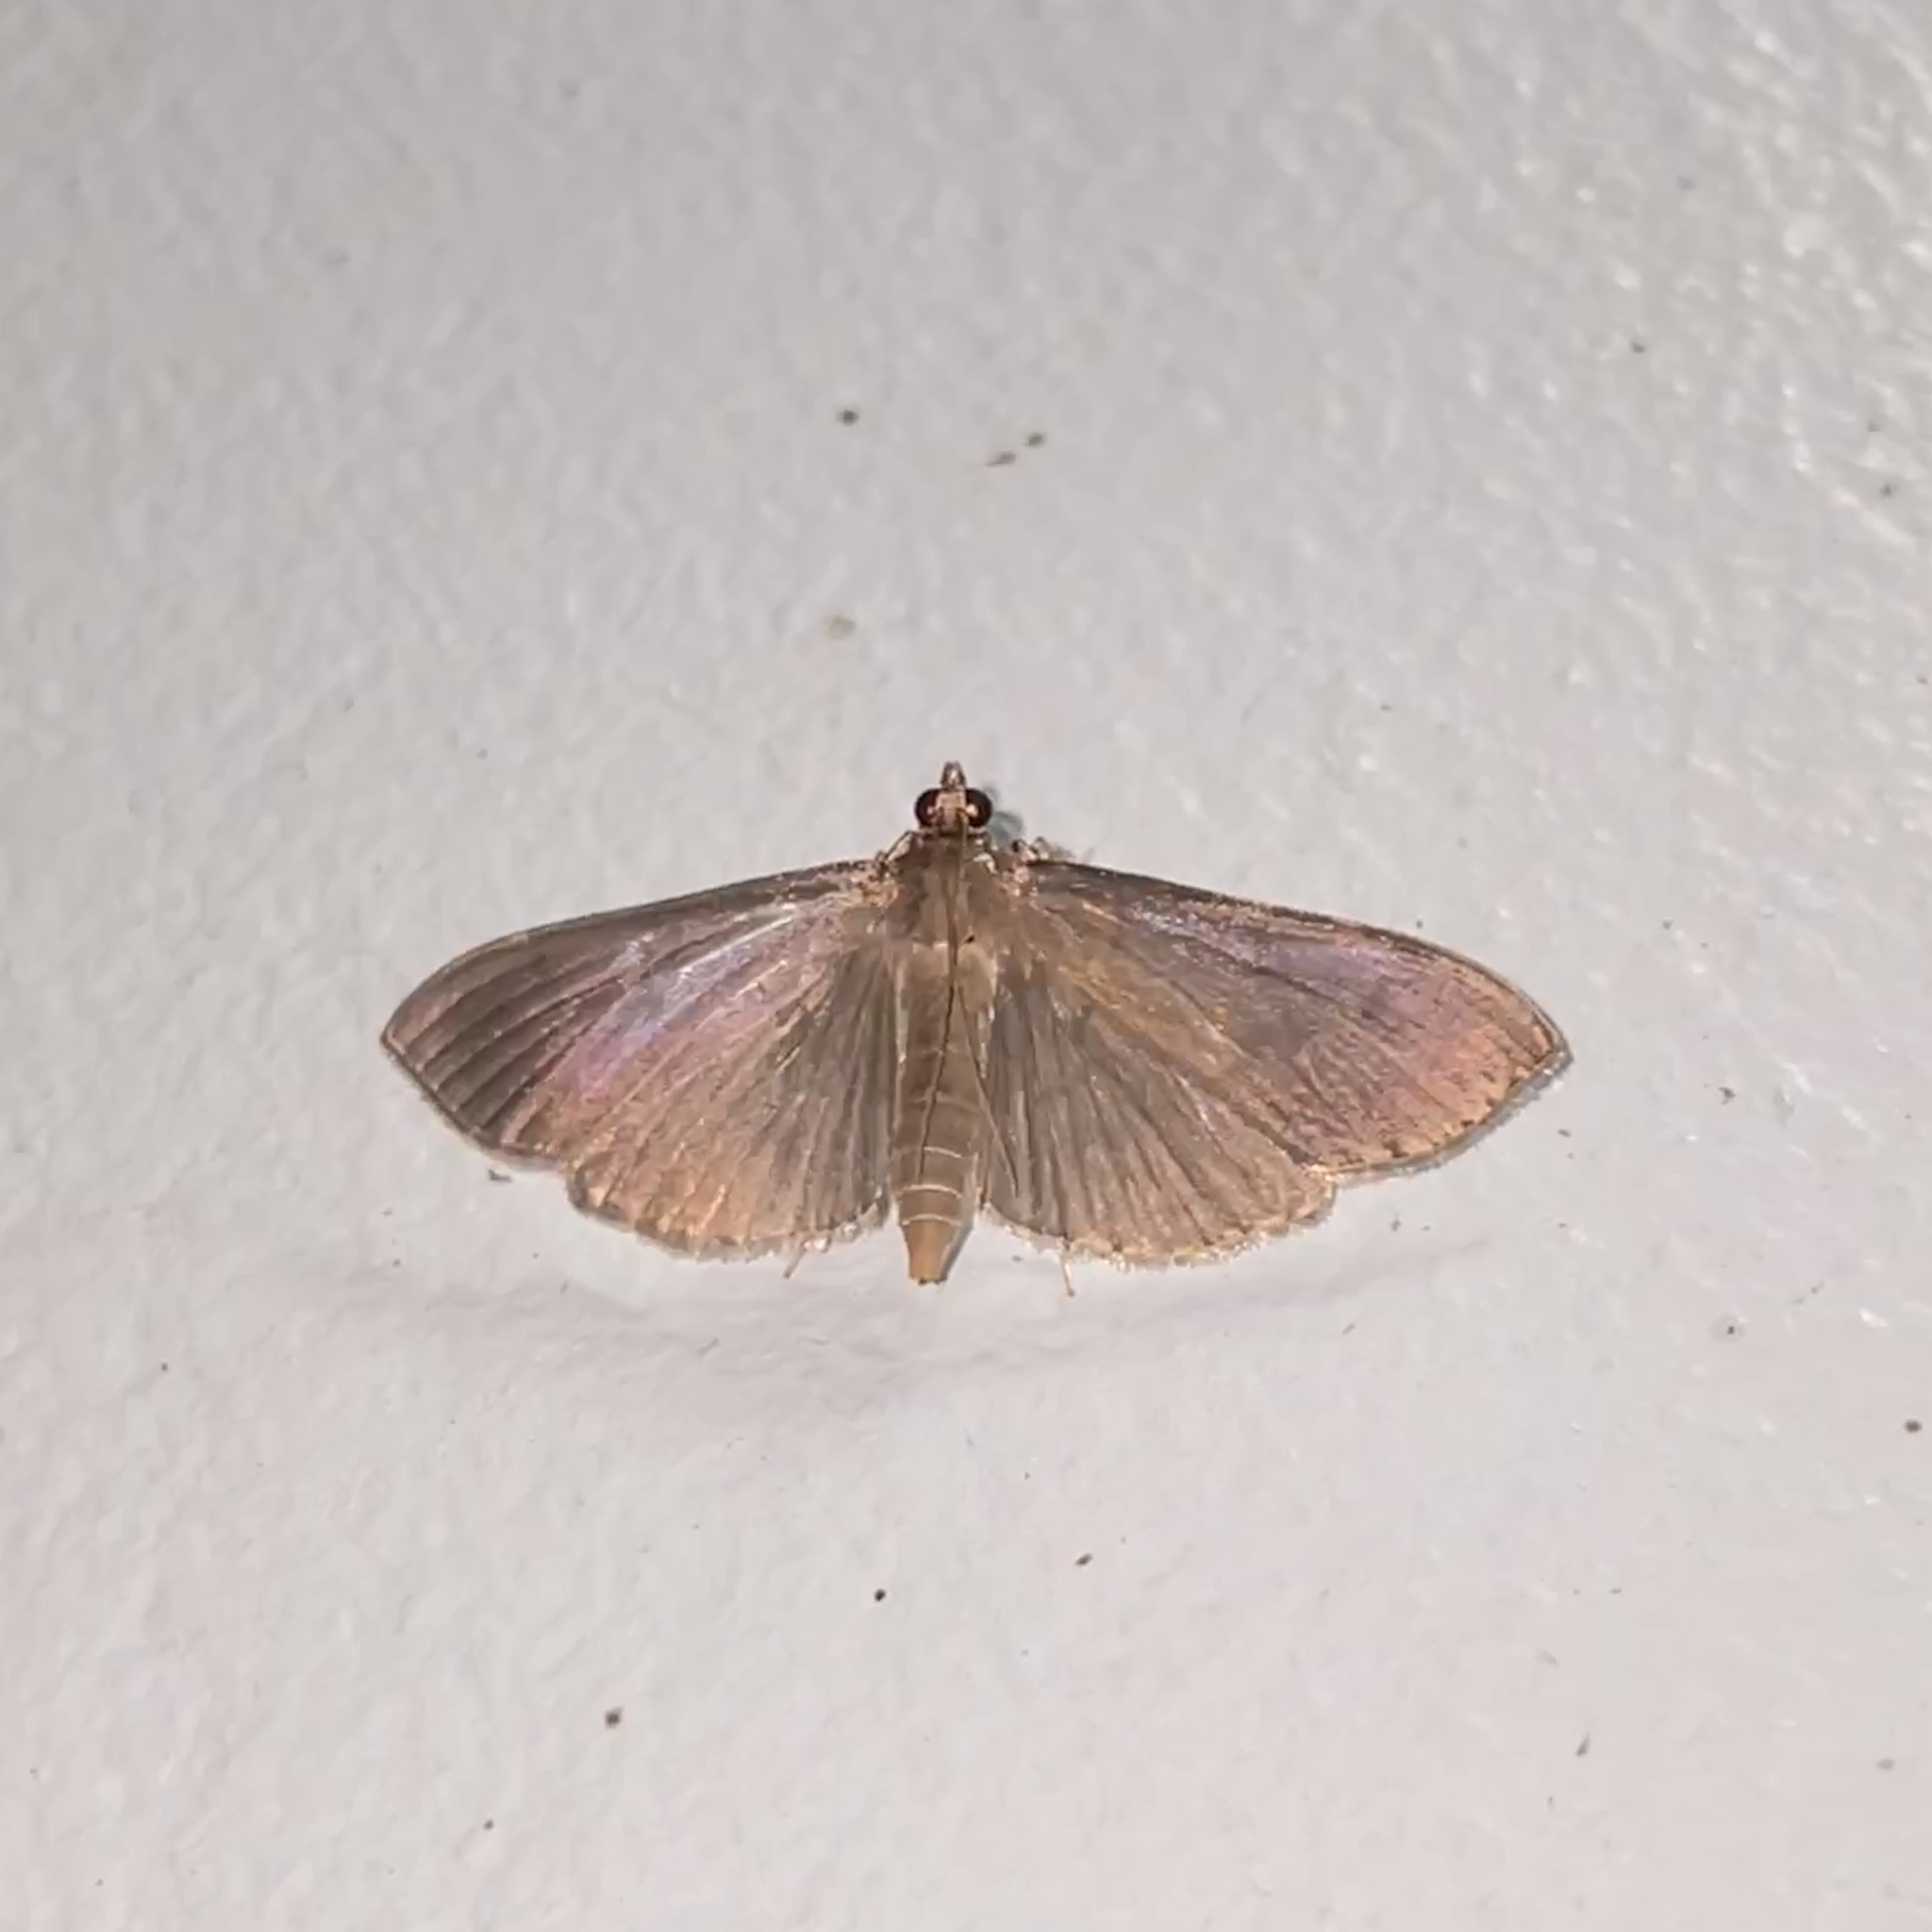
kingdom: Animalia
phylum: Arthropoda
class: Insecta
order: Lepidoptera
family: Crambidae
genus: Hoterodes
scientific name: Hoterodes ausonia
